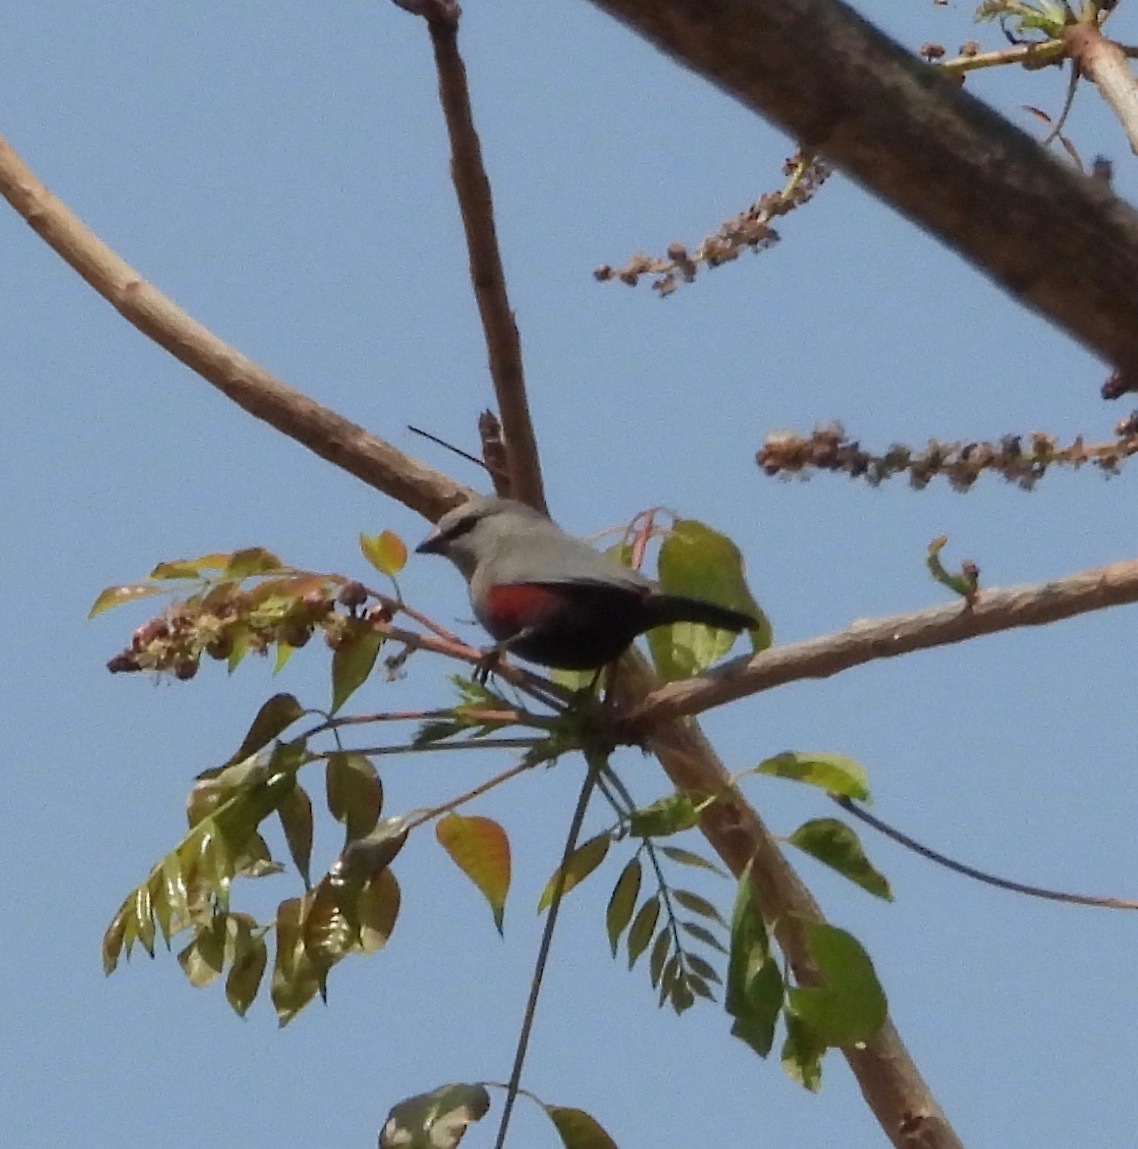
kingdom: Animalia
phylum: Chordata
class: Aves
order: Passeriformes
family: Estrildidae
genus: Estrilda
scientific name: Estrilda thomensis
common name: Cinderella waxbill
